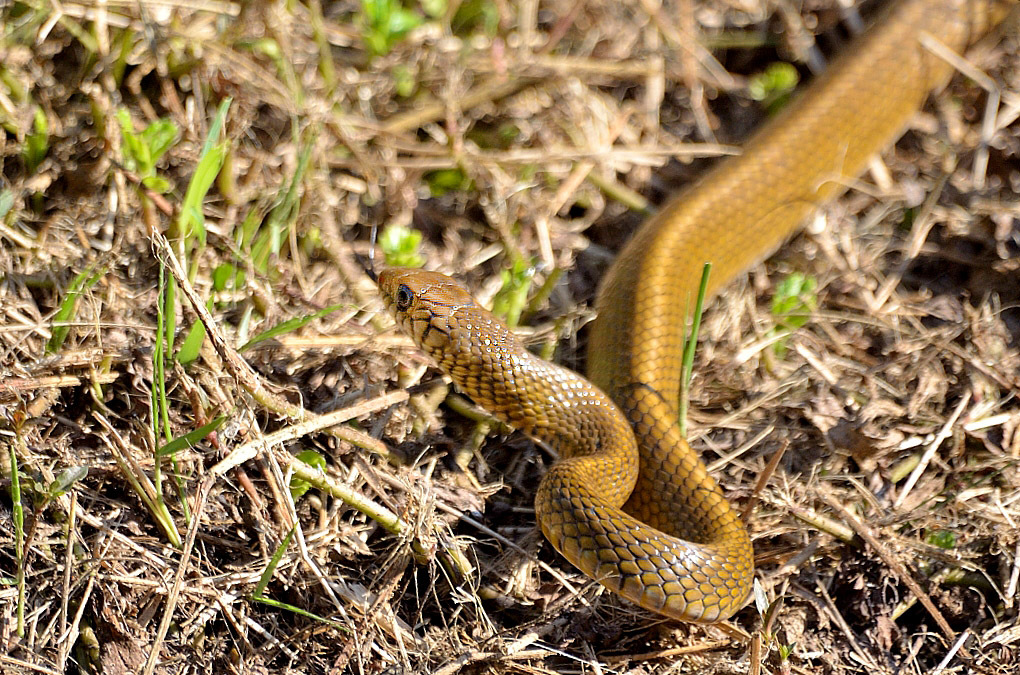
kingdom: Animalia
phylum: Chordata
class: Squamata
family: Colubridae
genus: Ptyas
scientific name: Ptyas mucosa
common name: Oriental ratsnake
